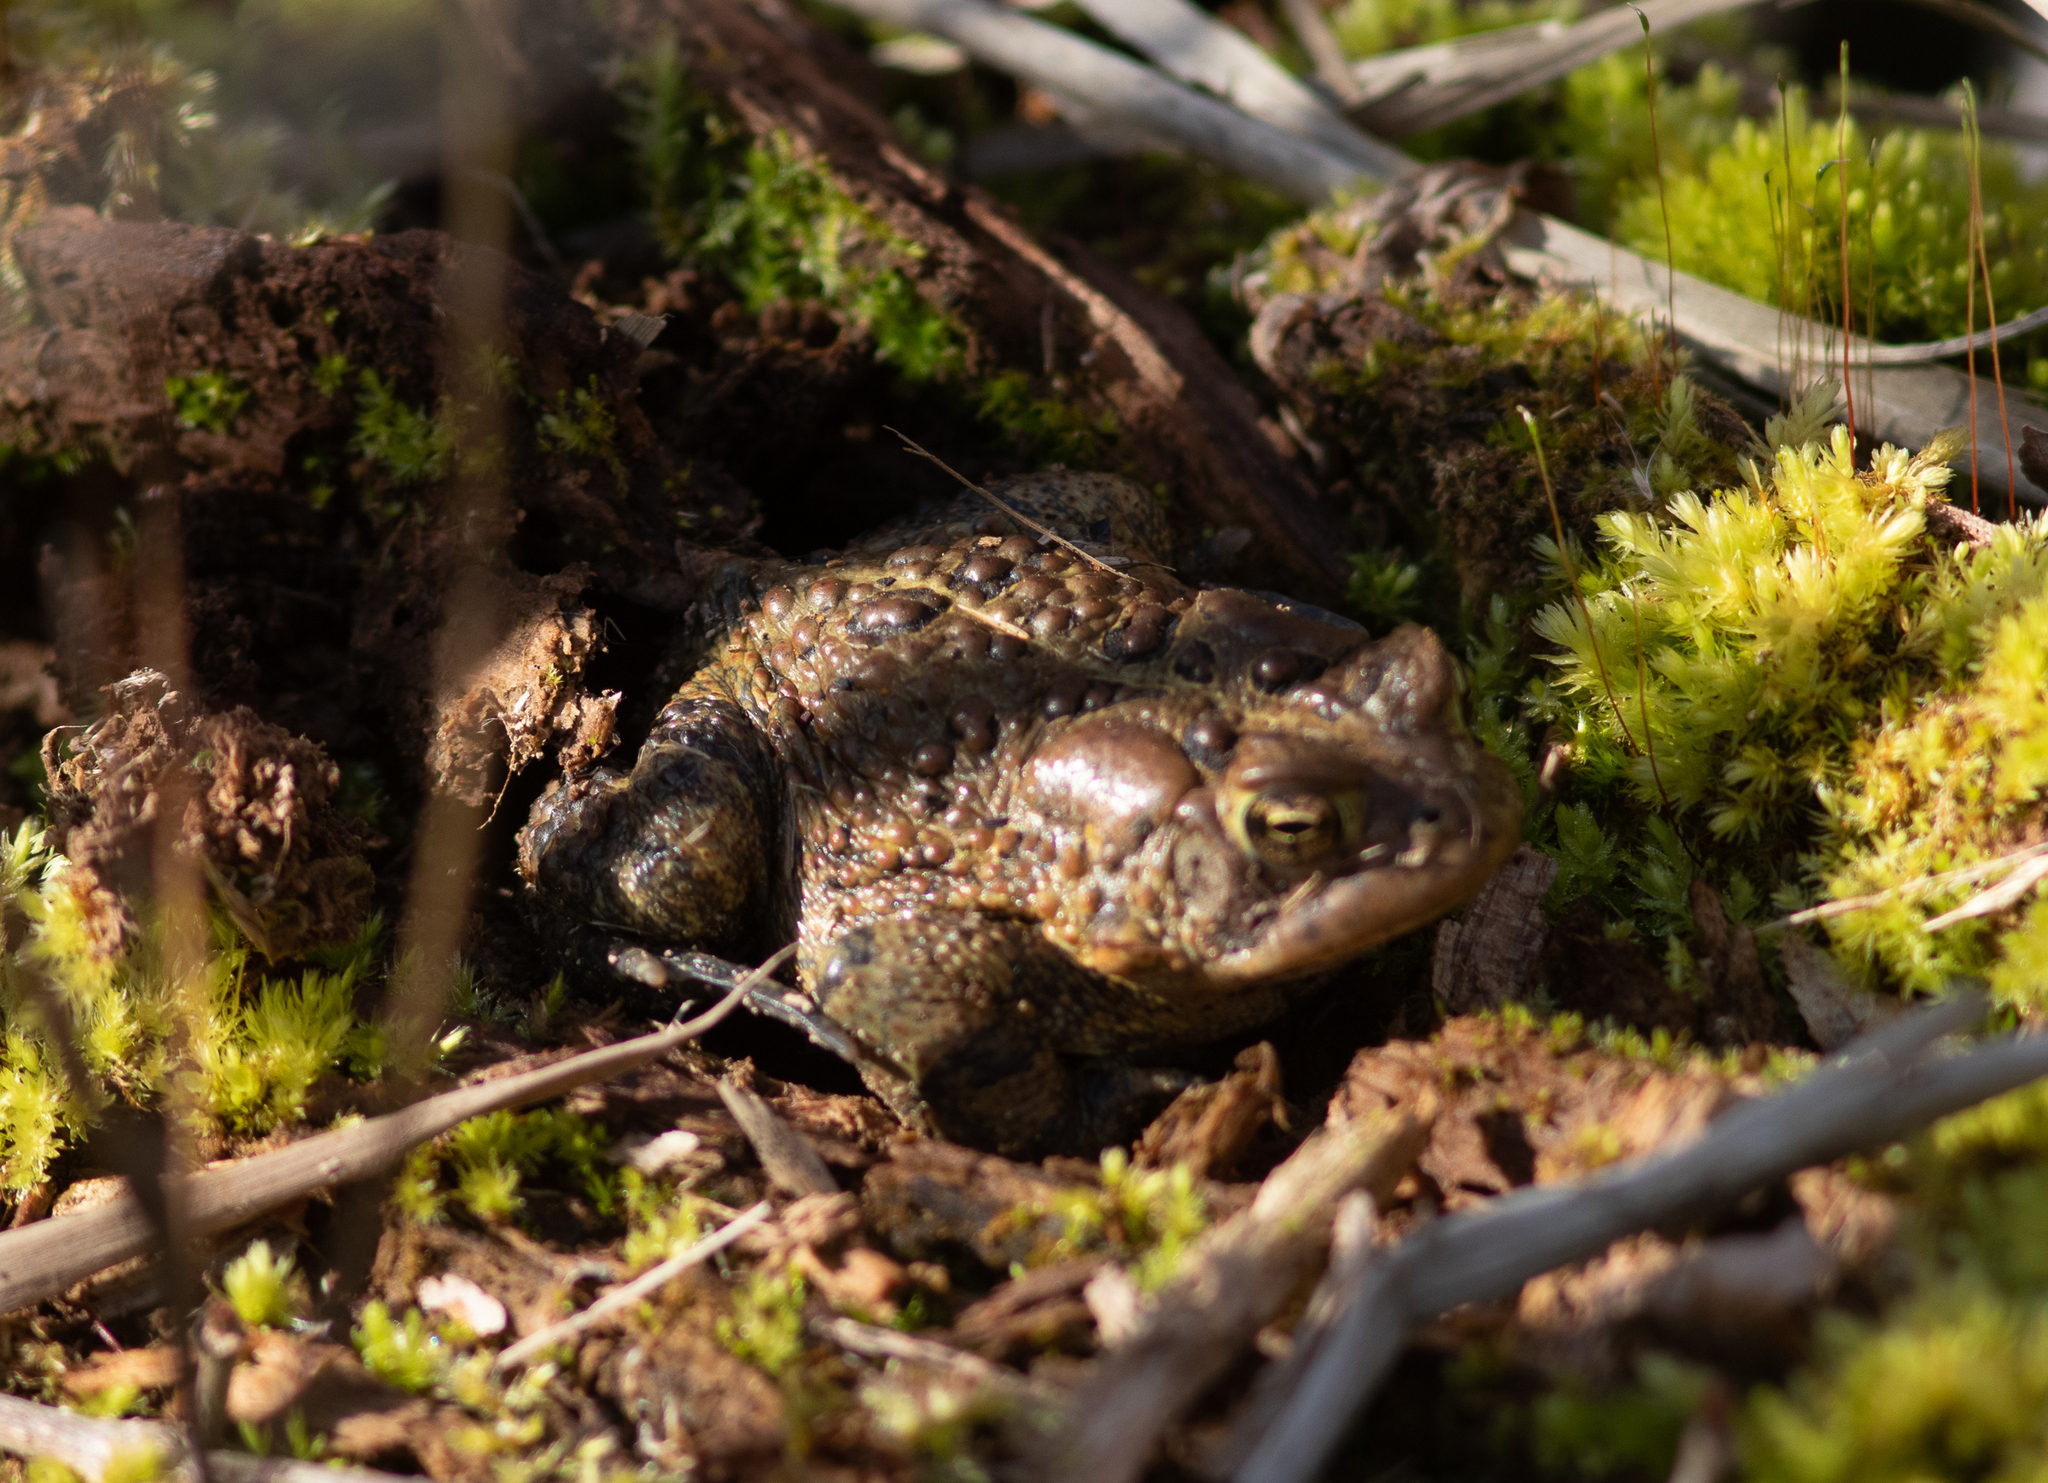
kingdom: Animalia
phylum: Chordata
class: Amphibia
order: Anura
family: Bufonidae
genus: Anaxyrus
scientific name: Anaxyrus americanus
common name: American toad
